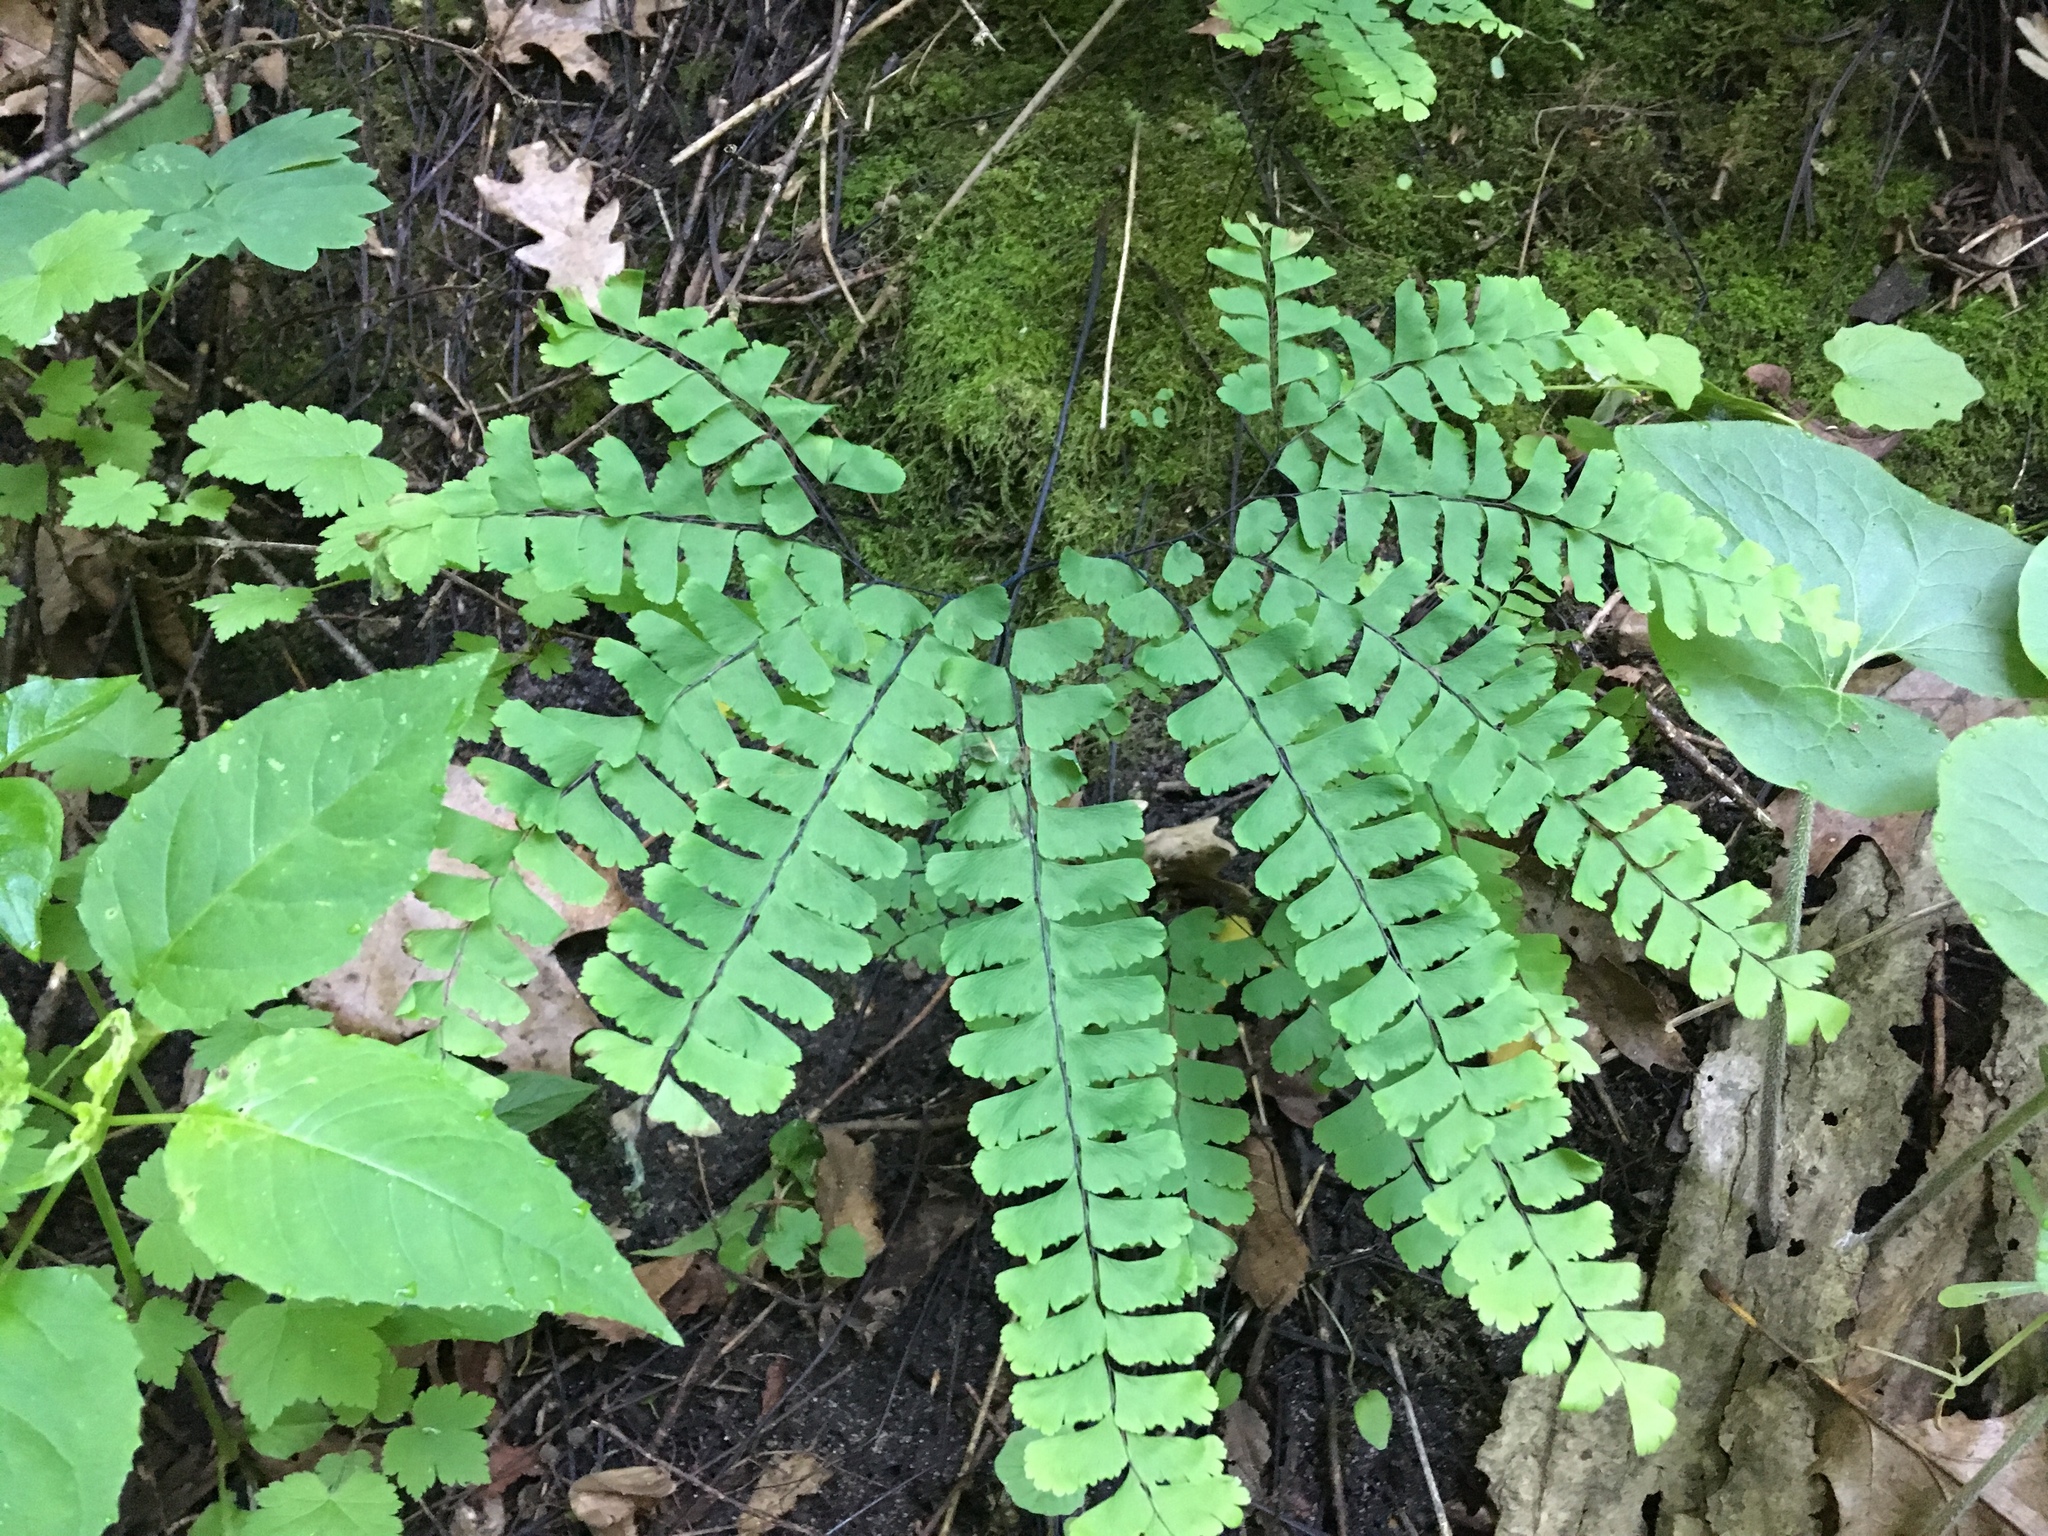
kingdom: Plantae
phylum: Tracheophyta
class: Polypodiopsida
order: Polypodiales
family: Pteridaceae
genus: Adiantum
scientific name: Adiantum pedatum
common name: Five-finger fern
